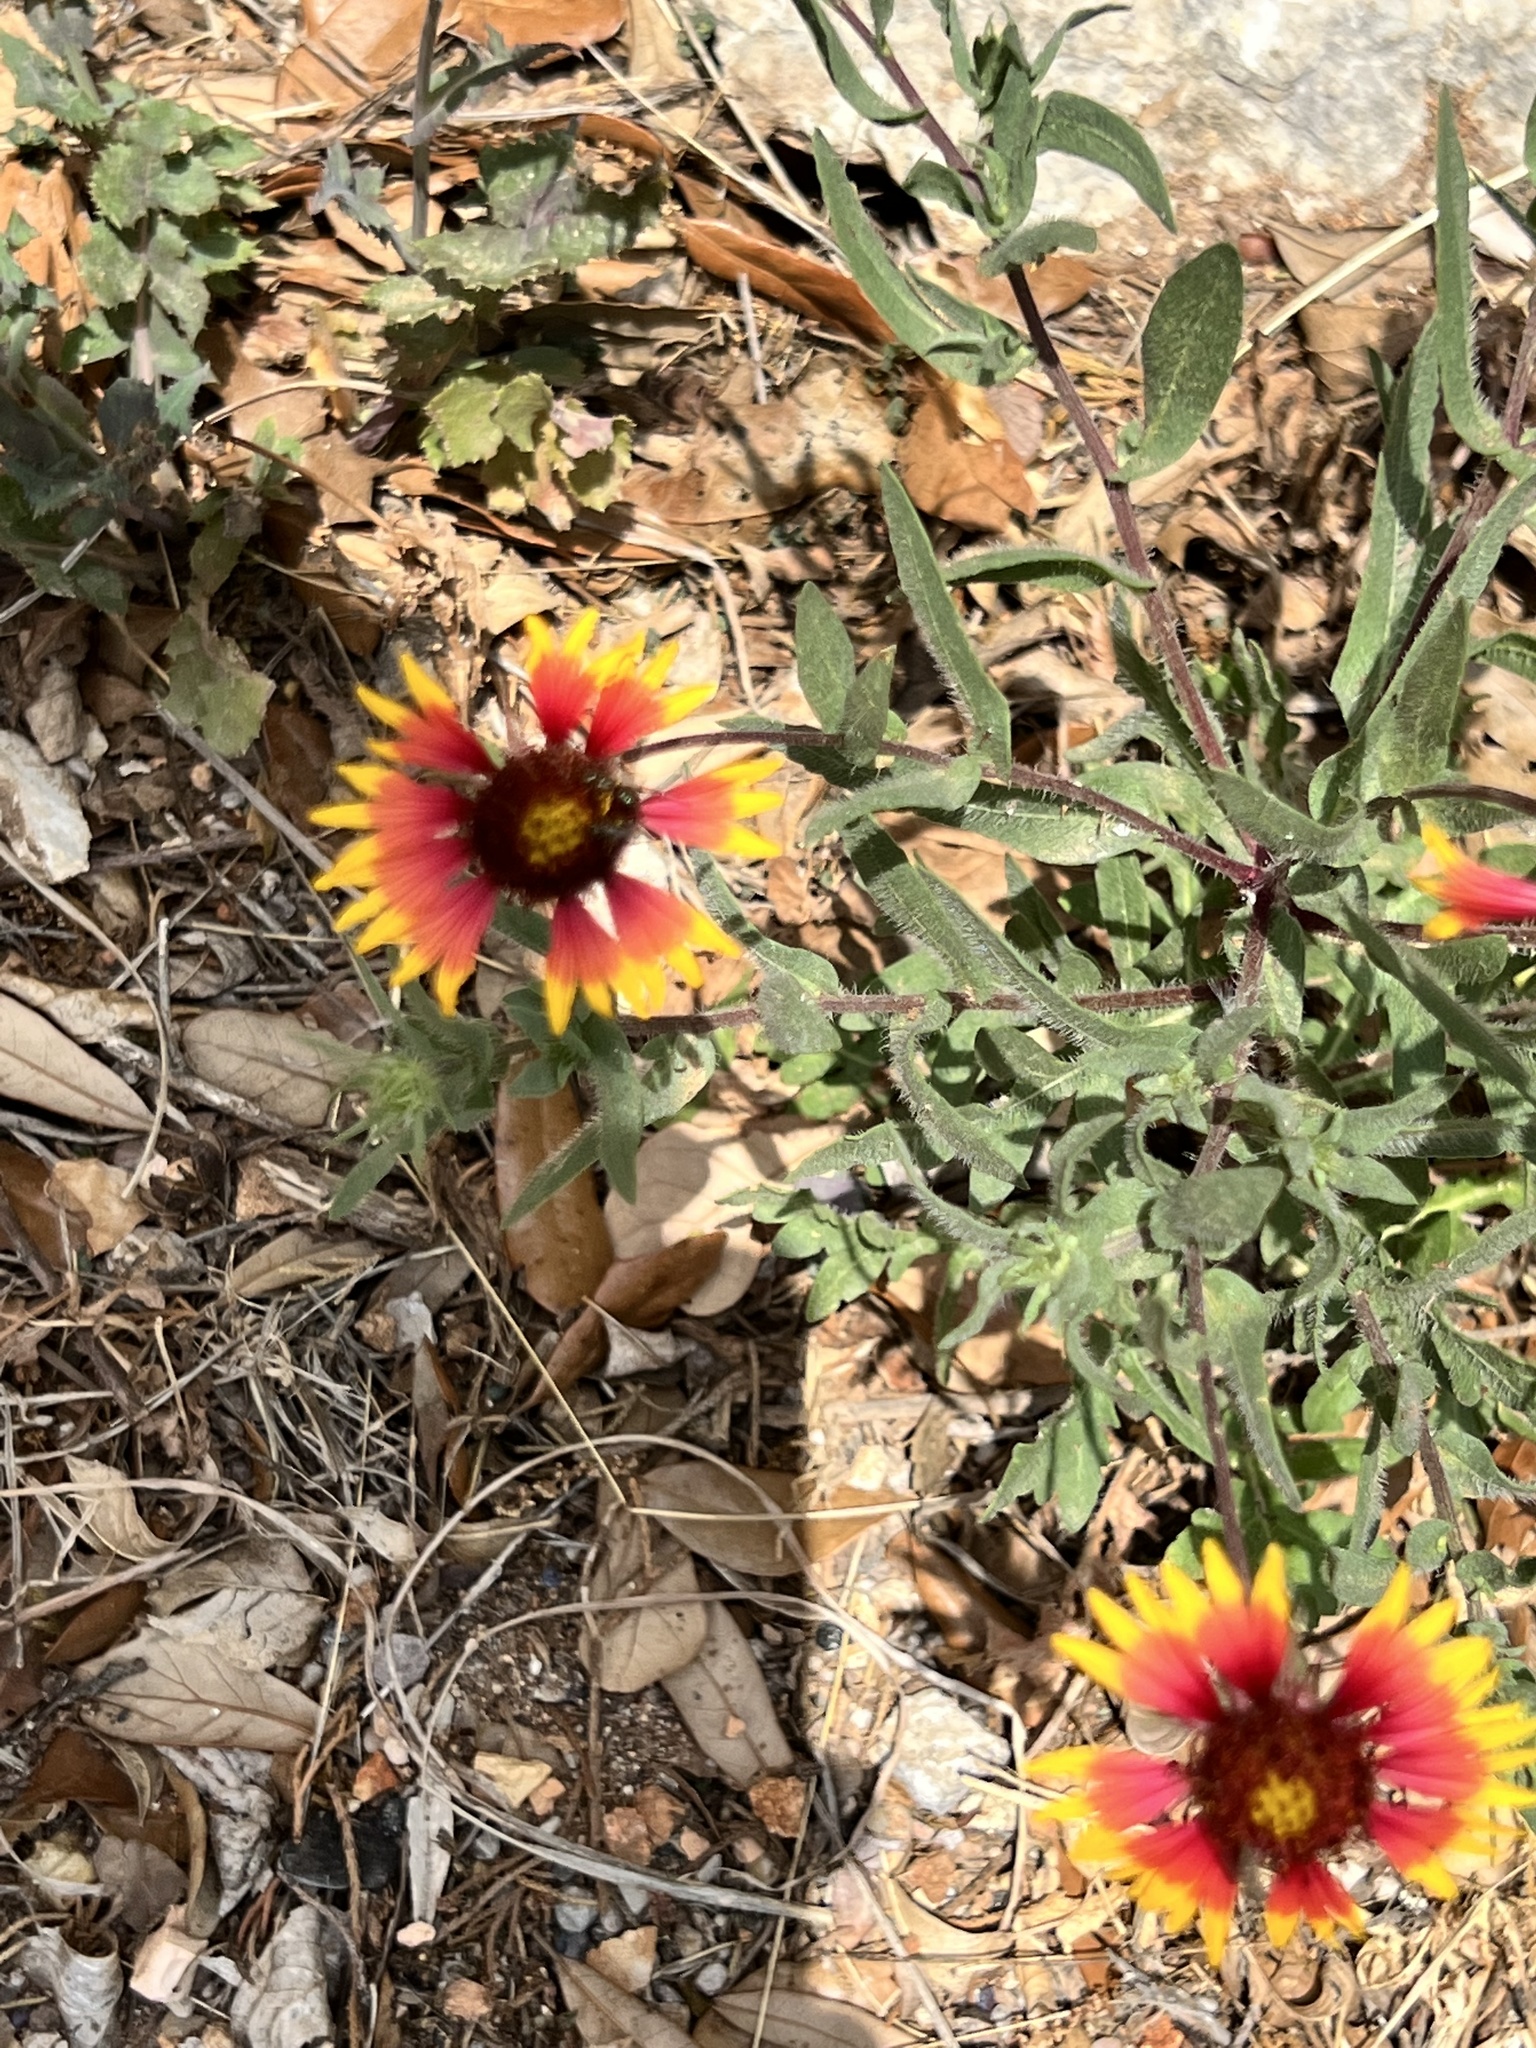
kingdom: Plantae
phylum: Tracheophyta
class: Magnoliopsida
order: Asterales
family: Asteraceae
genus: Gaillardia
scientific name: Gaillardia pulchella
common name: Firewheel
